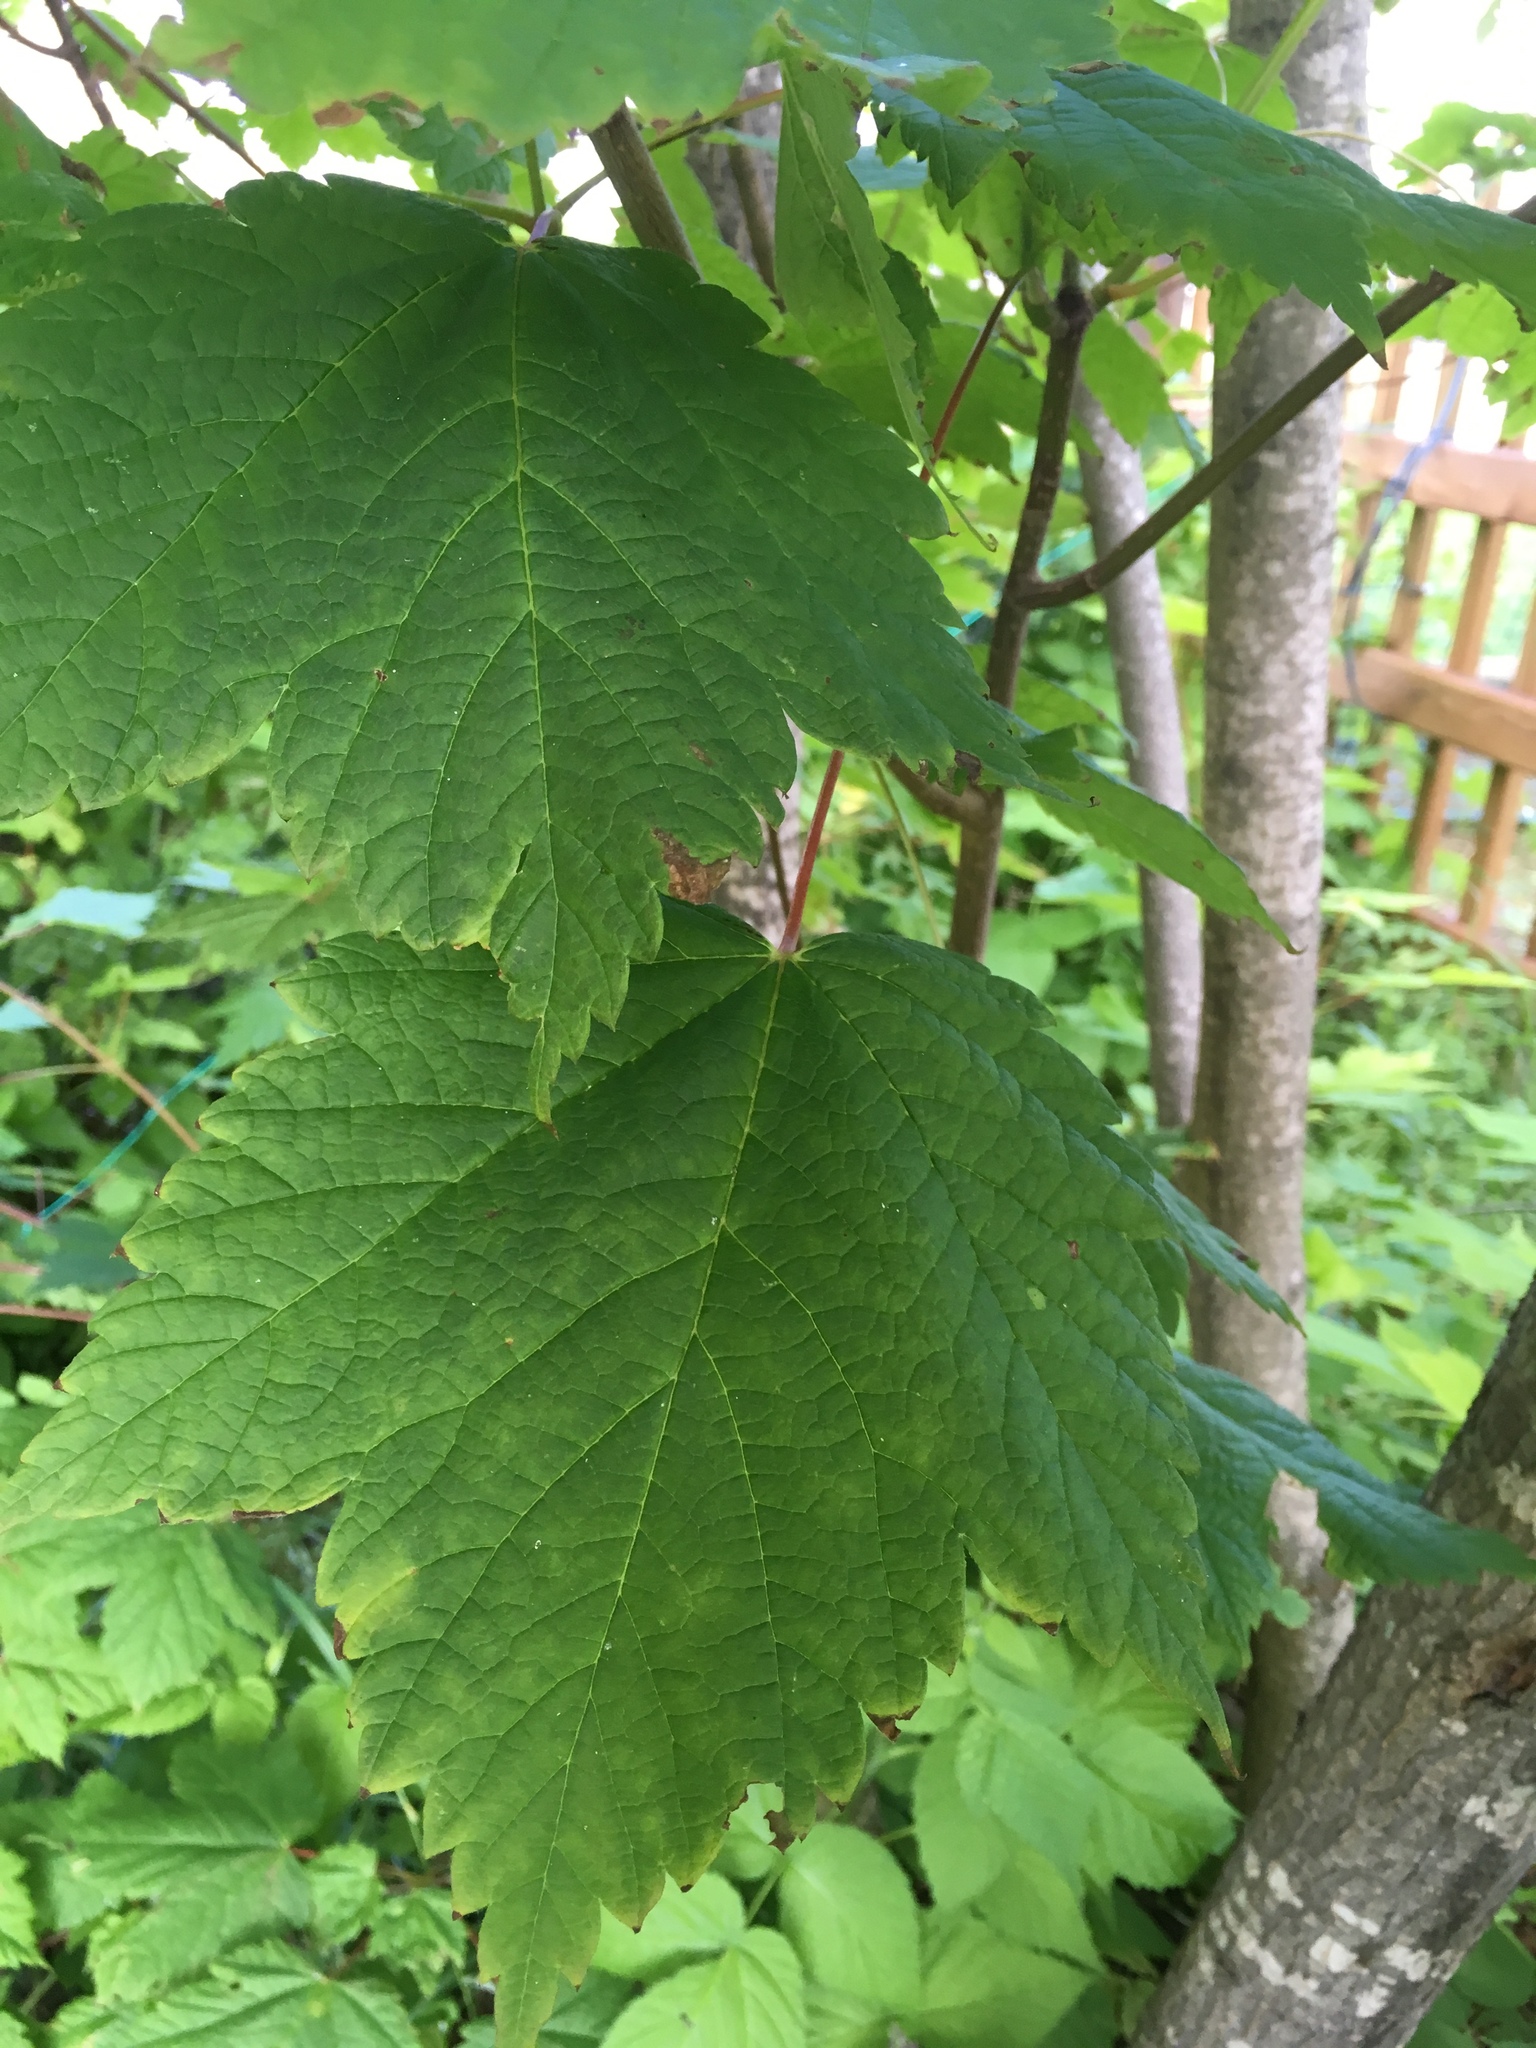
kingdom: Plantae
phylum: Tracheophyta
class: Magnoliopsida
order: Sapindales
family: Sapindaceae
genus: Acer
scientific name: Acer spicatum
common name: Mountain maple
